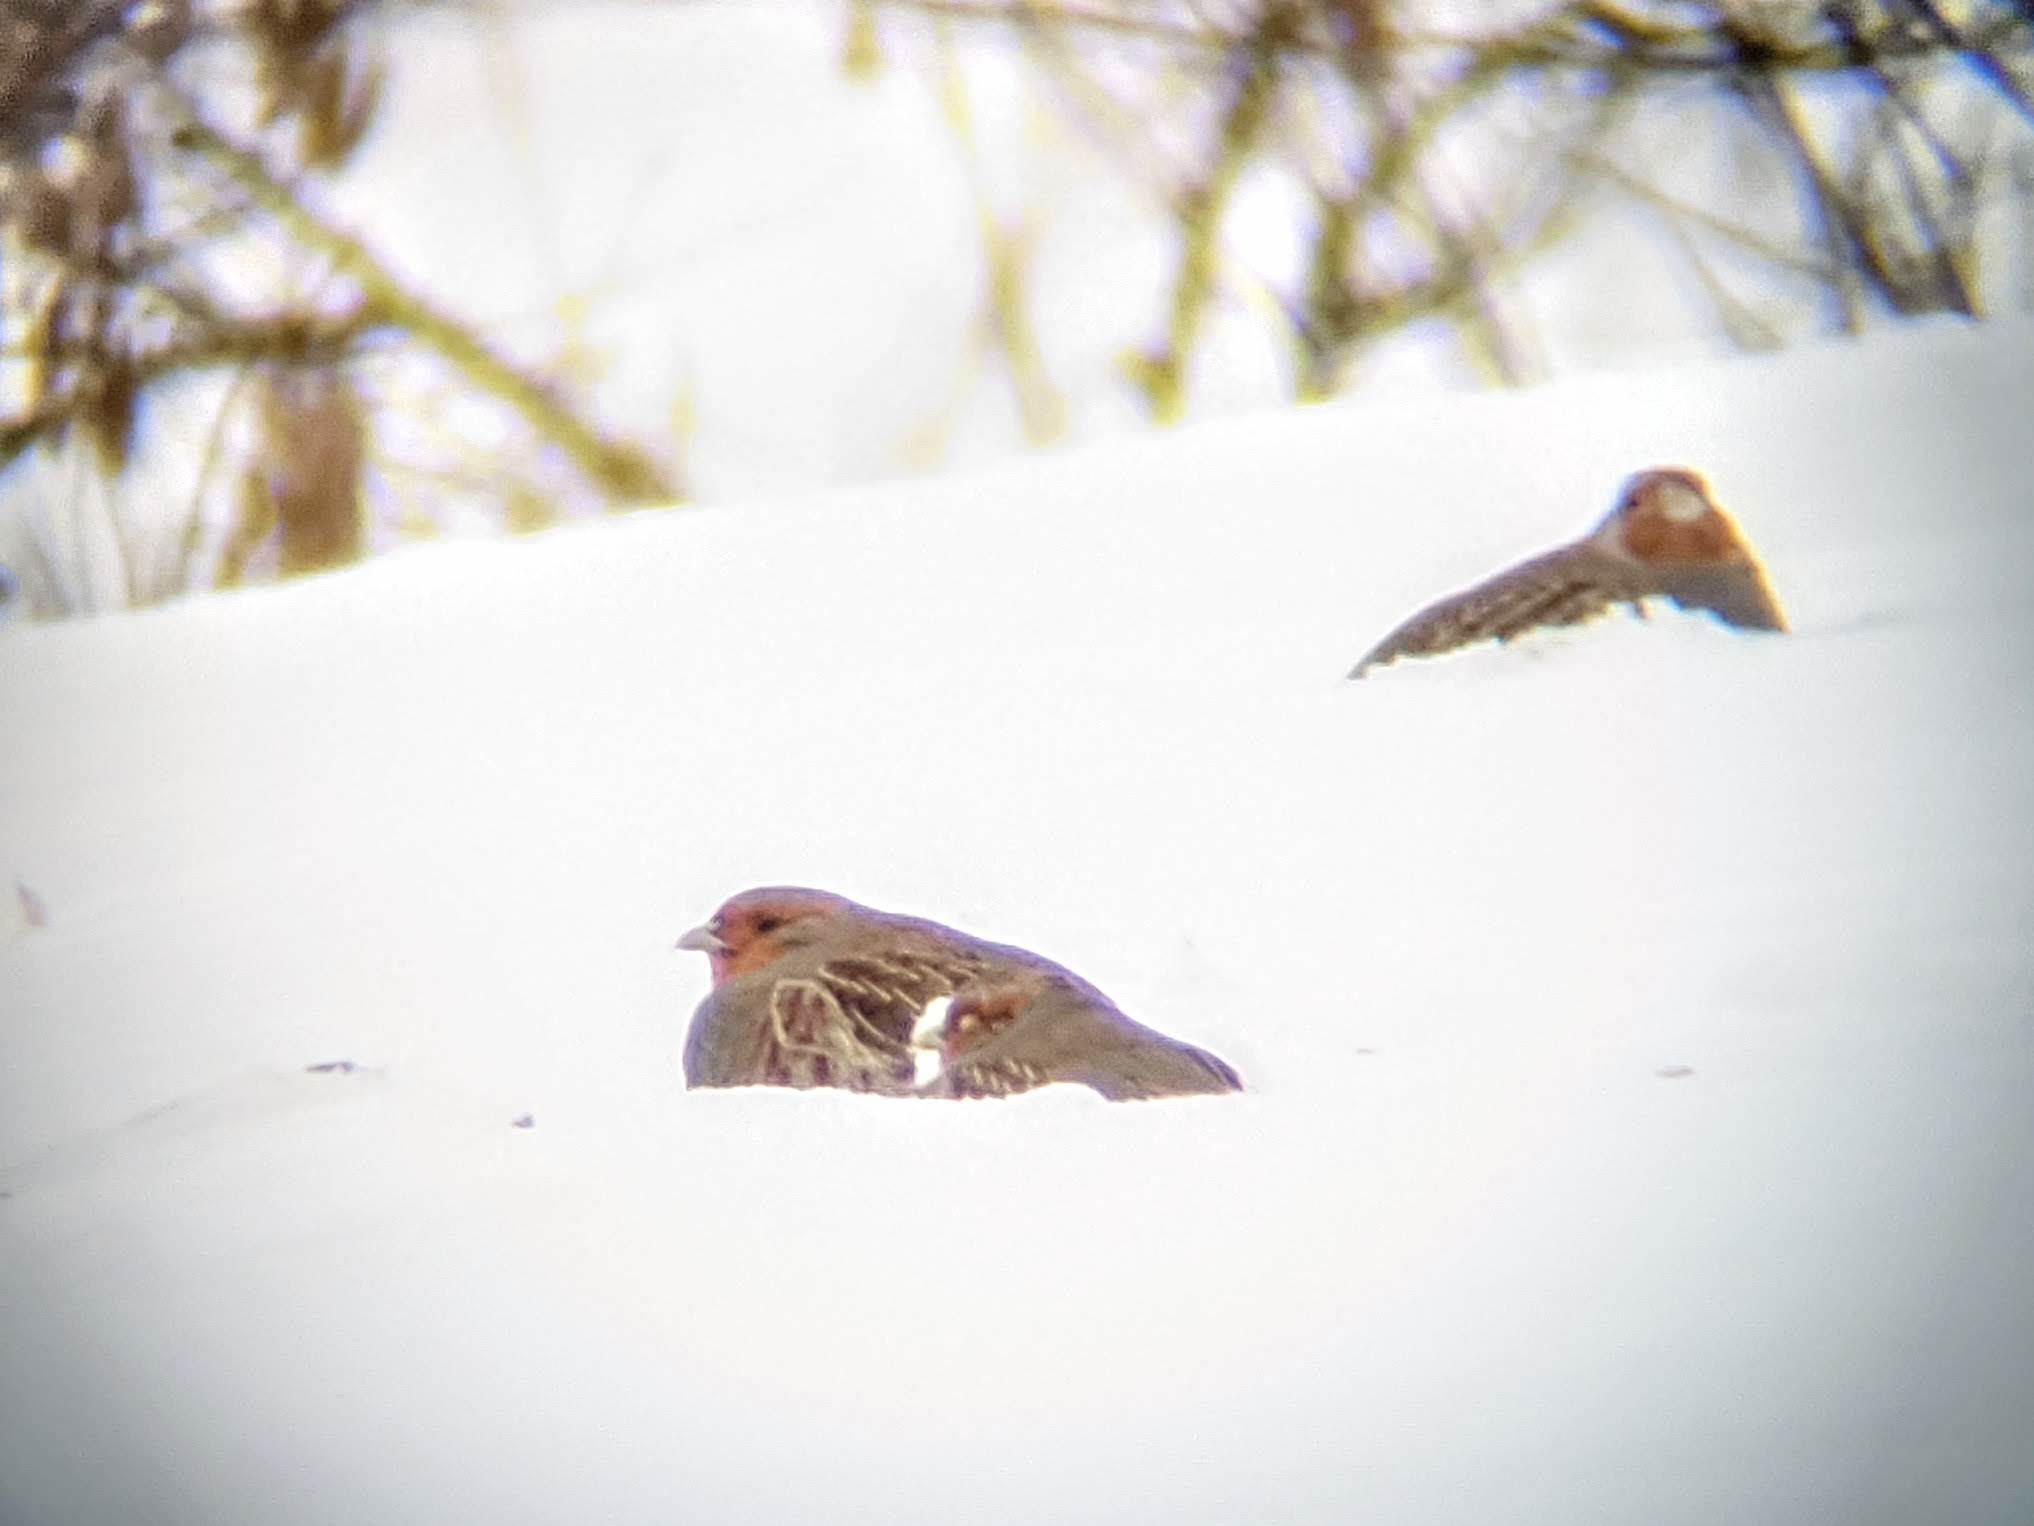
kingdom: Animalia
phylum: Chordata
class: Aves
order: Galliformes
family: Phasianidae
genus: Perdix
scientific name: Perdix perdix
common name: Grey partridge
